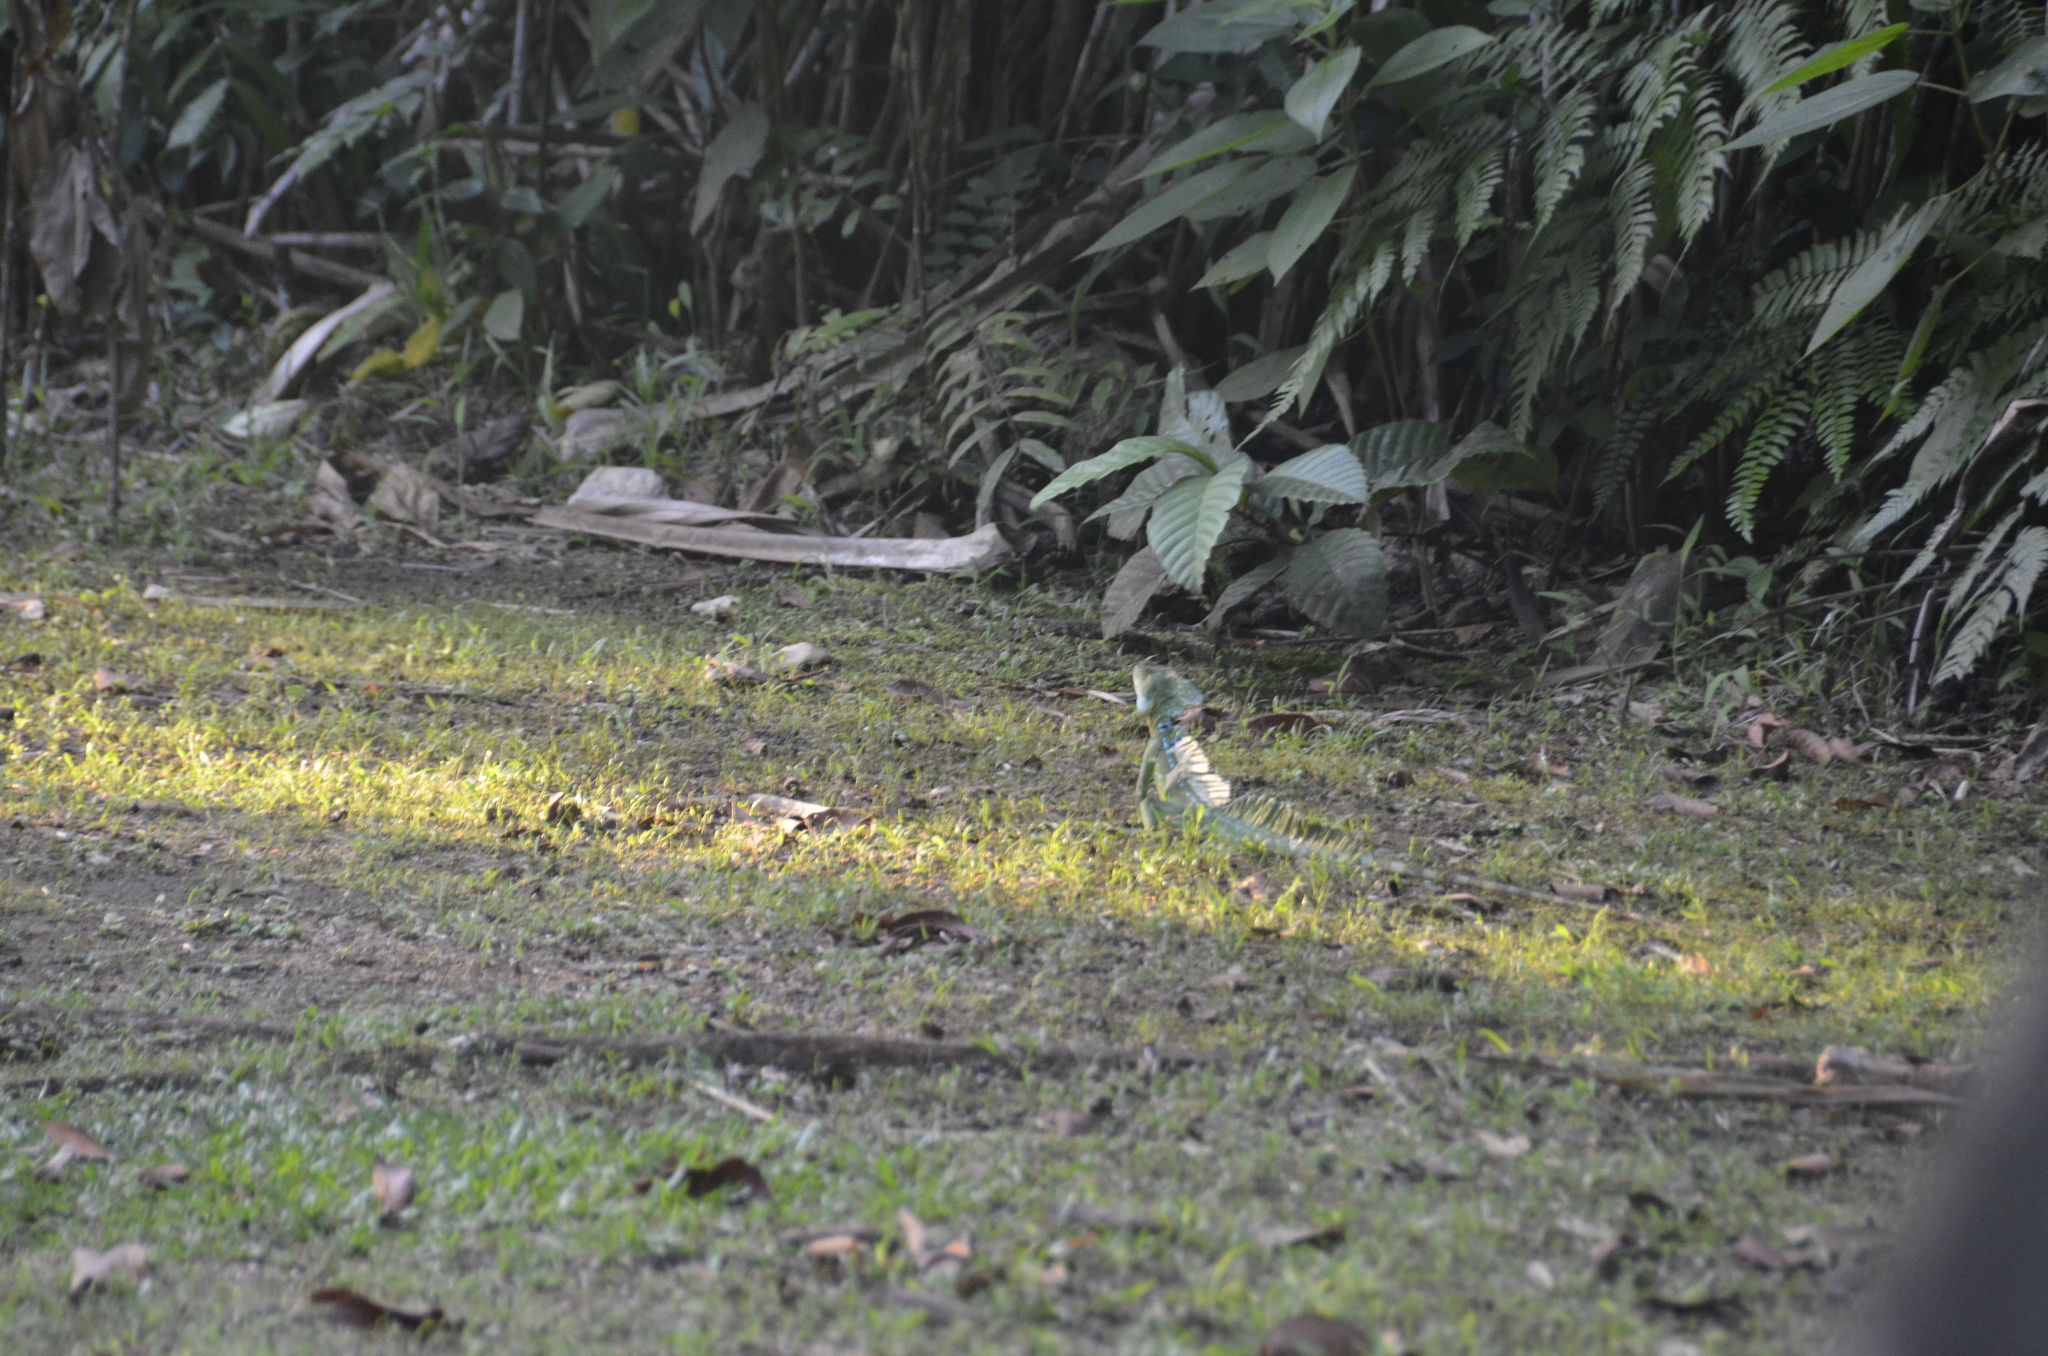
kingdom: Animalia
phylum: Chordata
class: Squamata
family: Corytophanidae
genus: Basiliscus
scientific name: Basiliscus plumifrons
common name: Green basilisk
